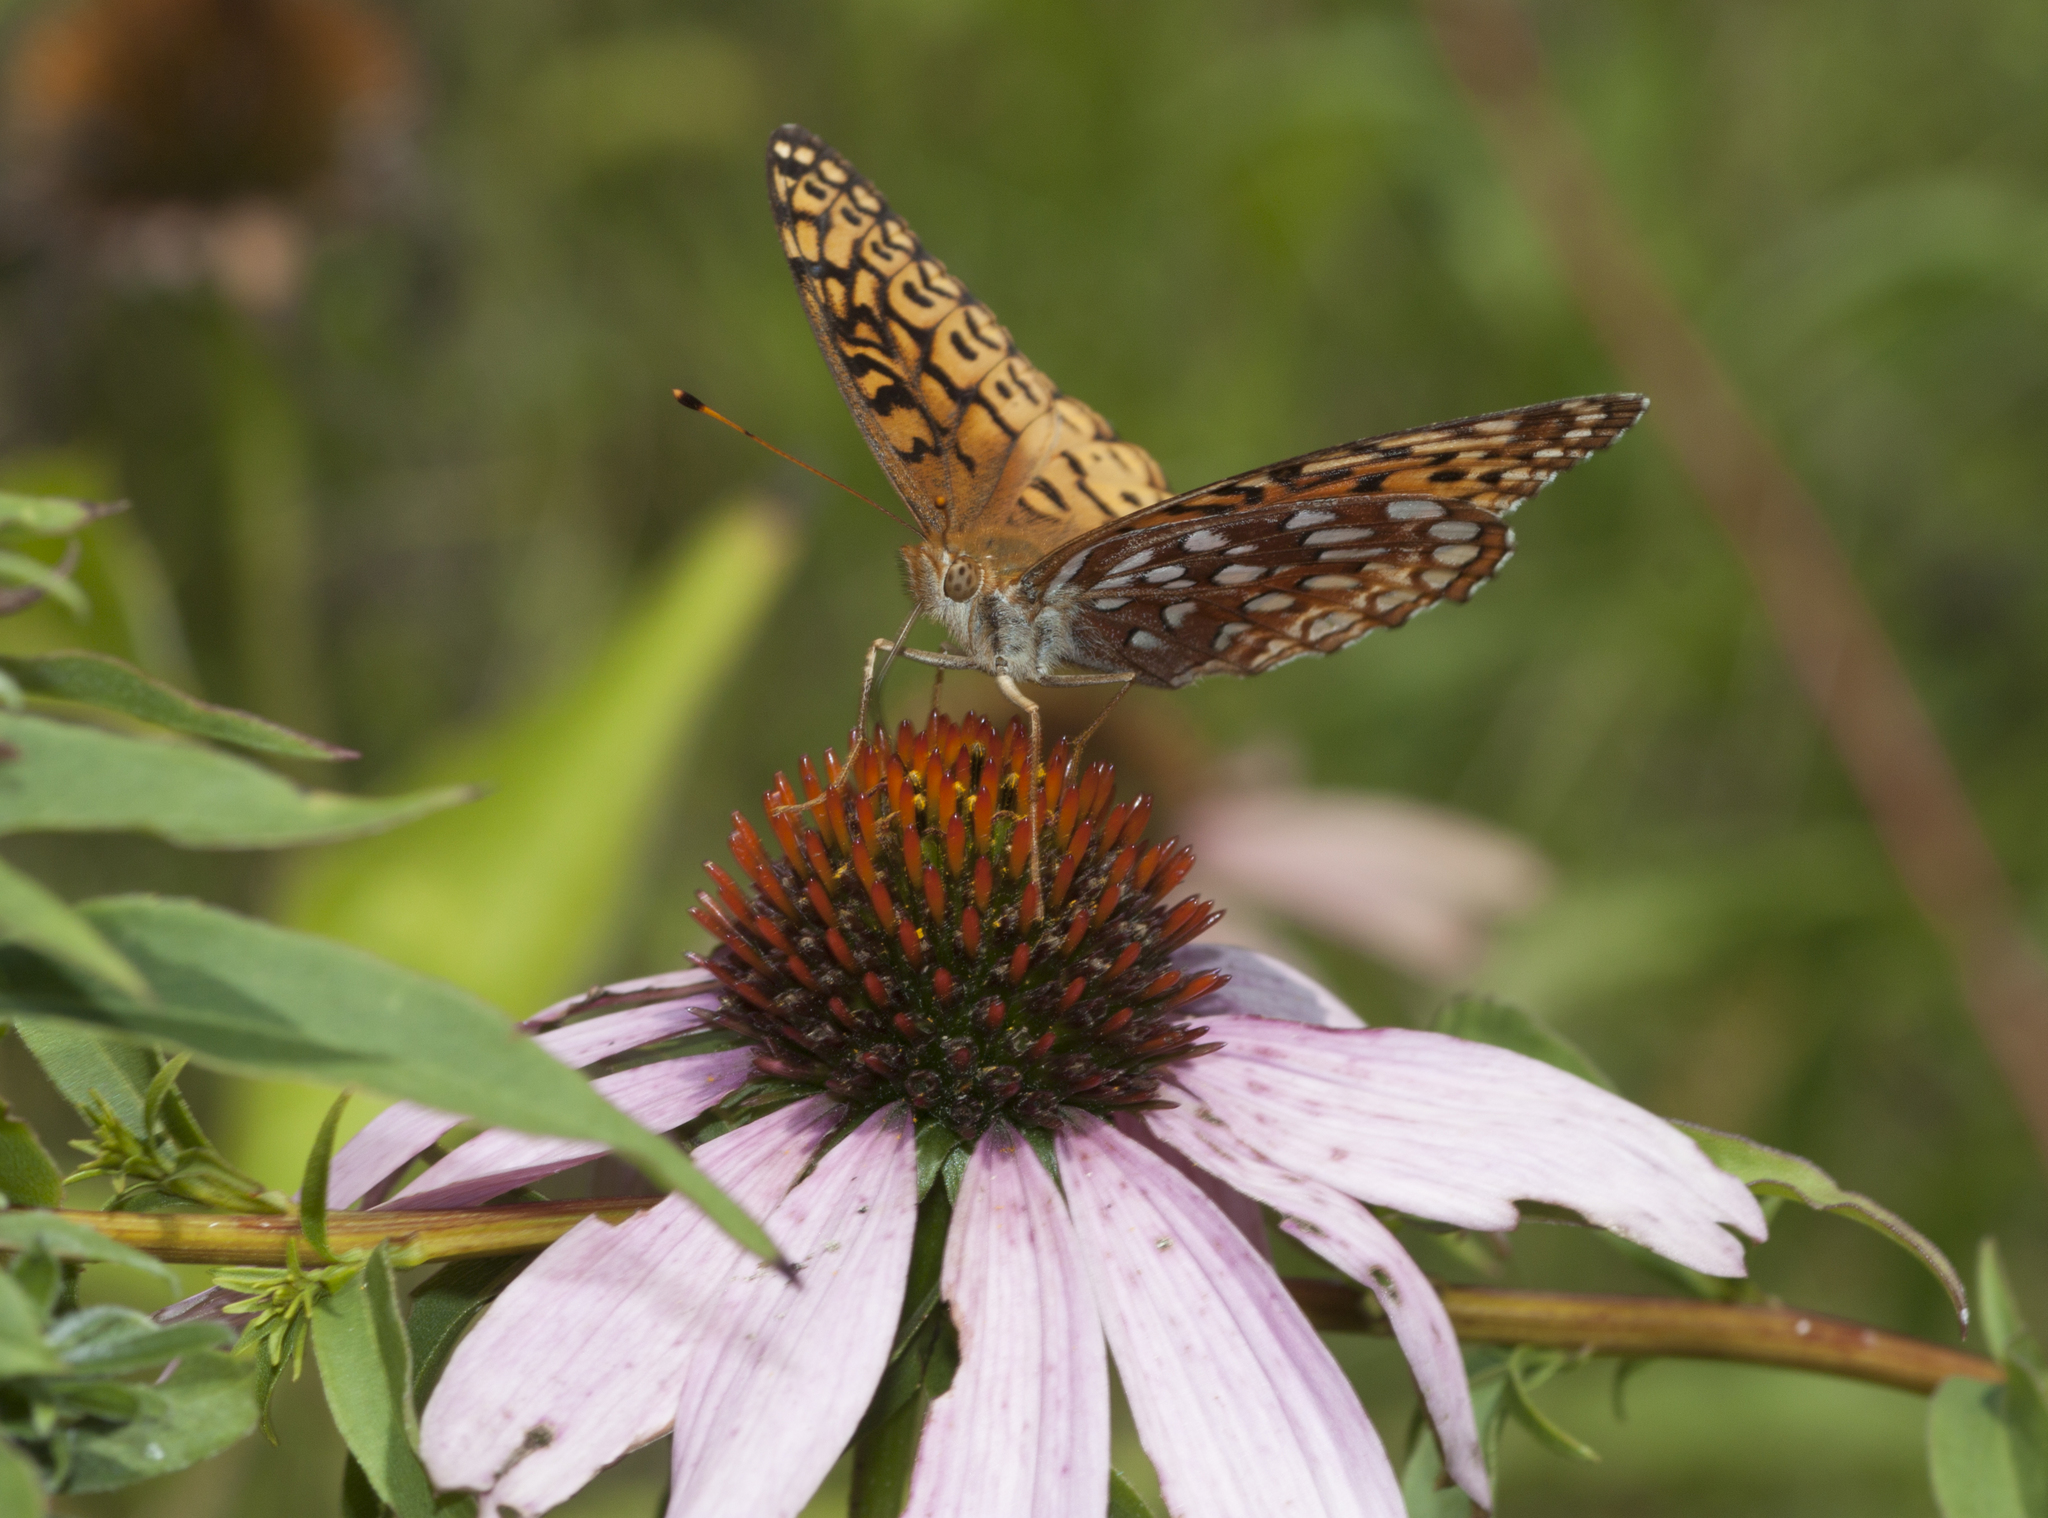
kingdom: Animalia
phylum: Arthropoda
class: Insecta
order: Lepidoptera
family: Nymphalidae
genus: Speyeria
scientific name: Speyeria aphrodite
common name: Aphrodite friitllary
